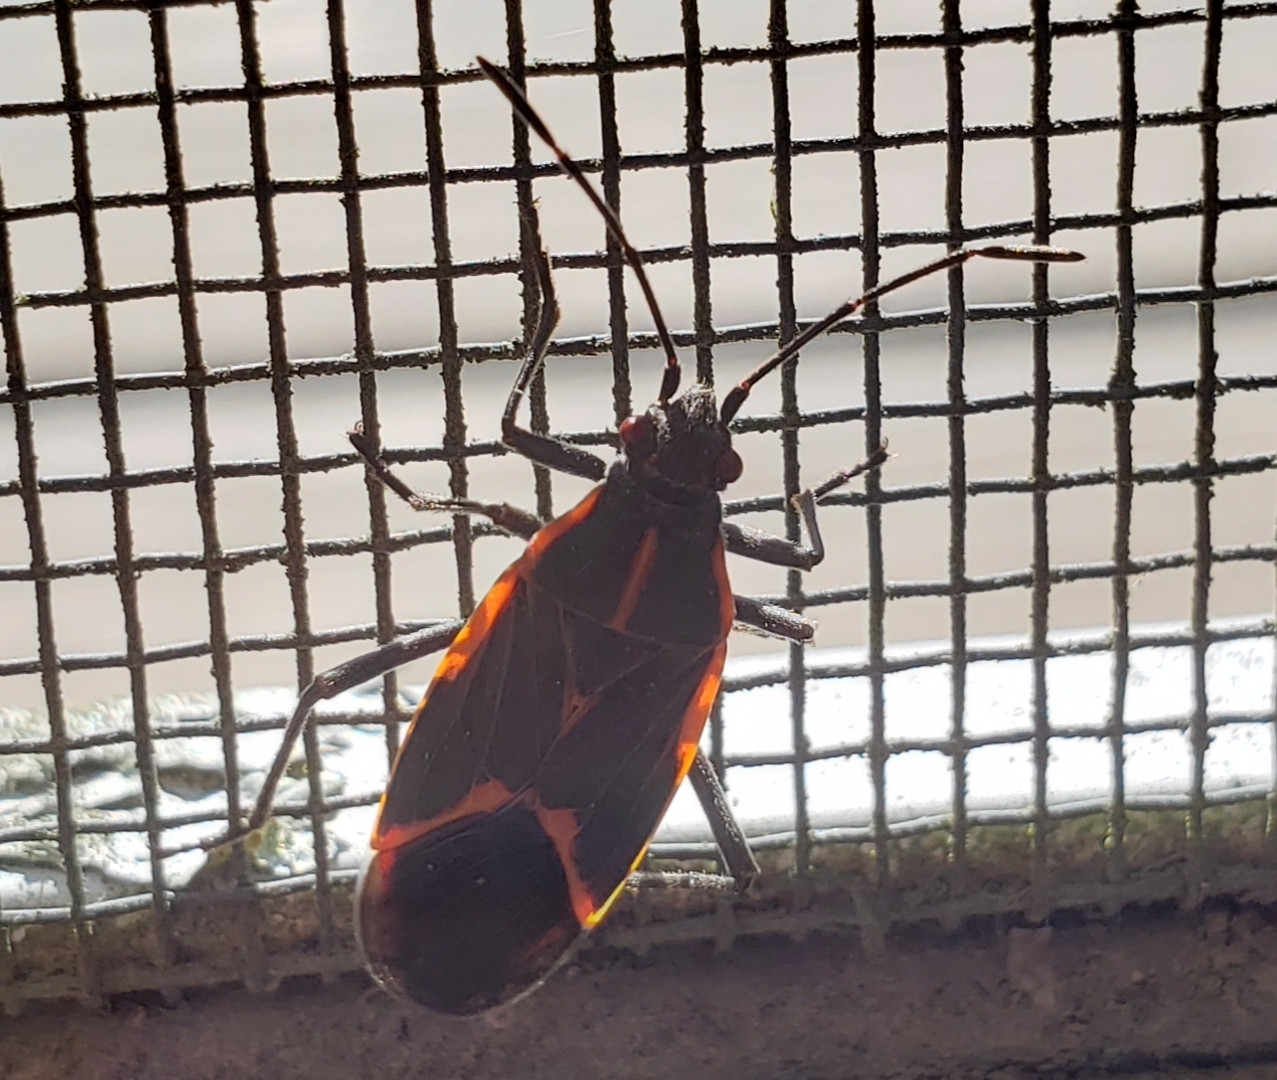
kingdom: Animalia
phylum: Arthropoda
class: Insecta
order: Hemiptera
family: Rhopalidae
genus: Boisea
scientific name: Boisea trivittata
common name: Boxelder bug
